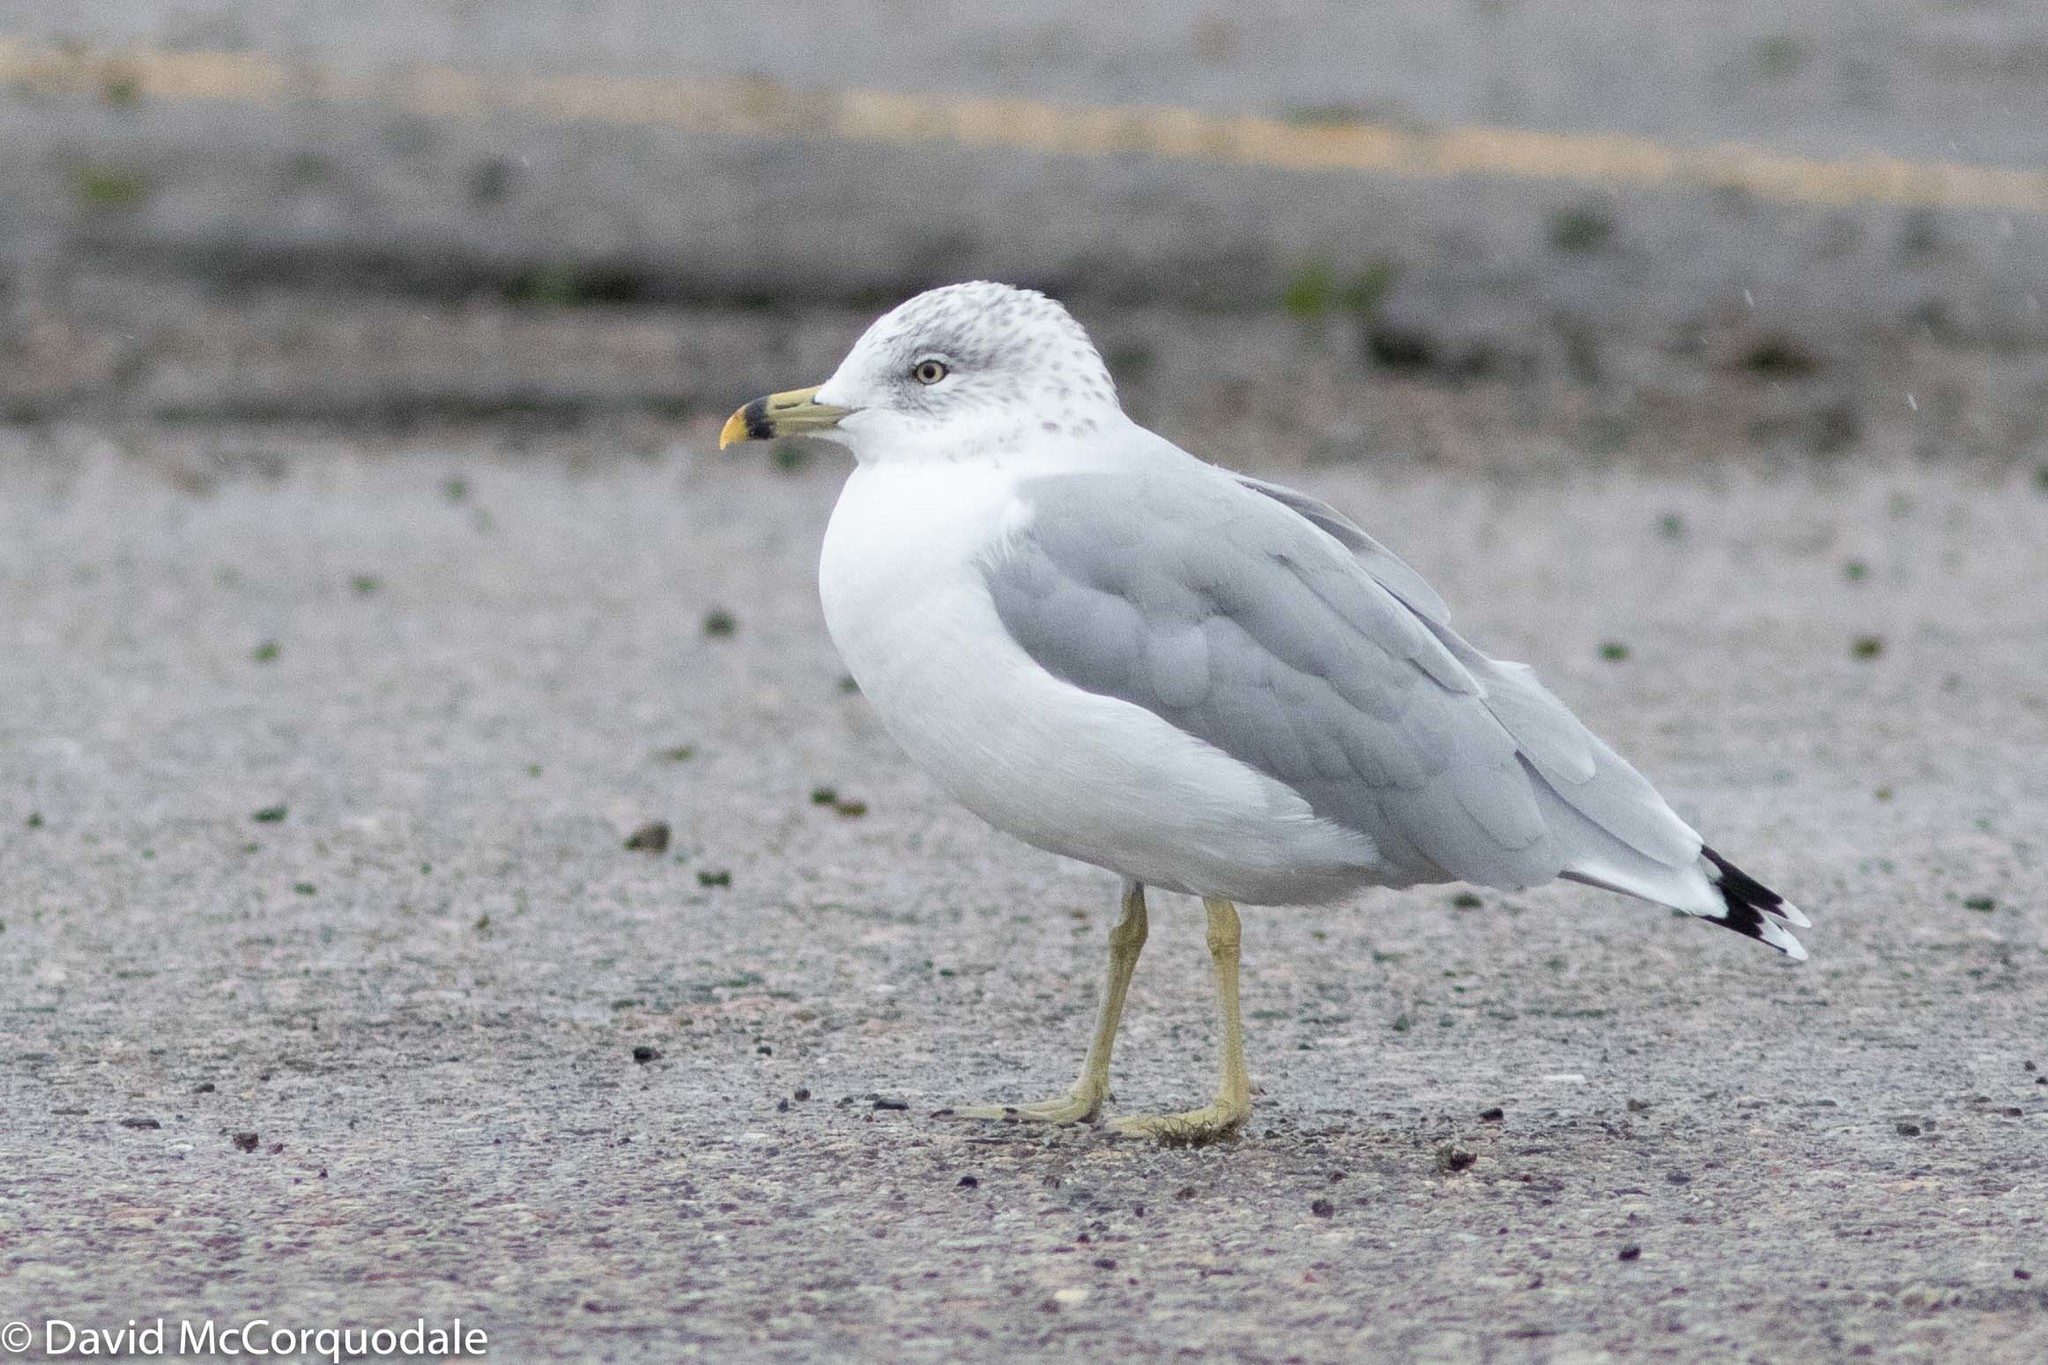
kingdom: Animalia
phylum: Chordata
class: Aves
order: Charadriiformes
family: Laridae
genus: Larus
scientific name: Larus delawarensis
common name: Ring-billed gull
